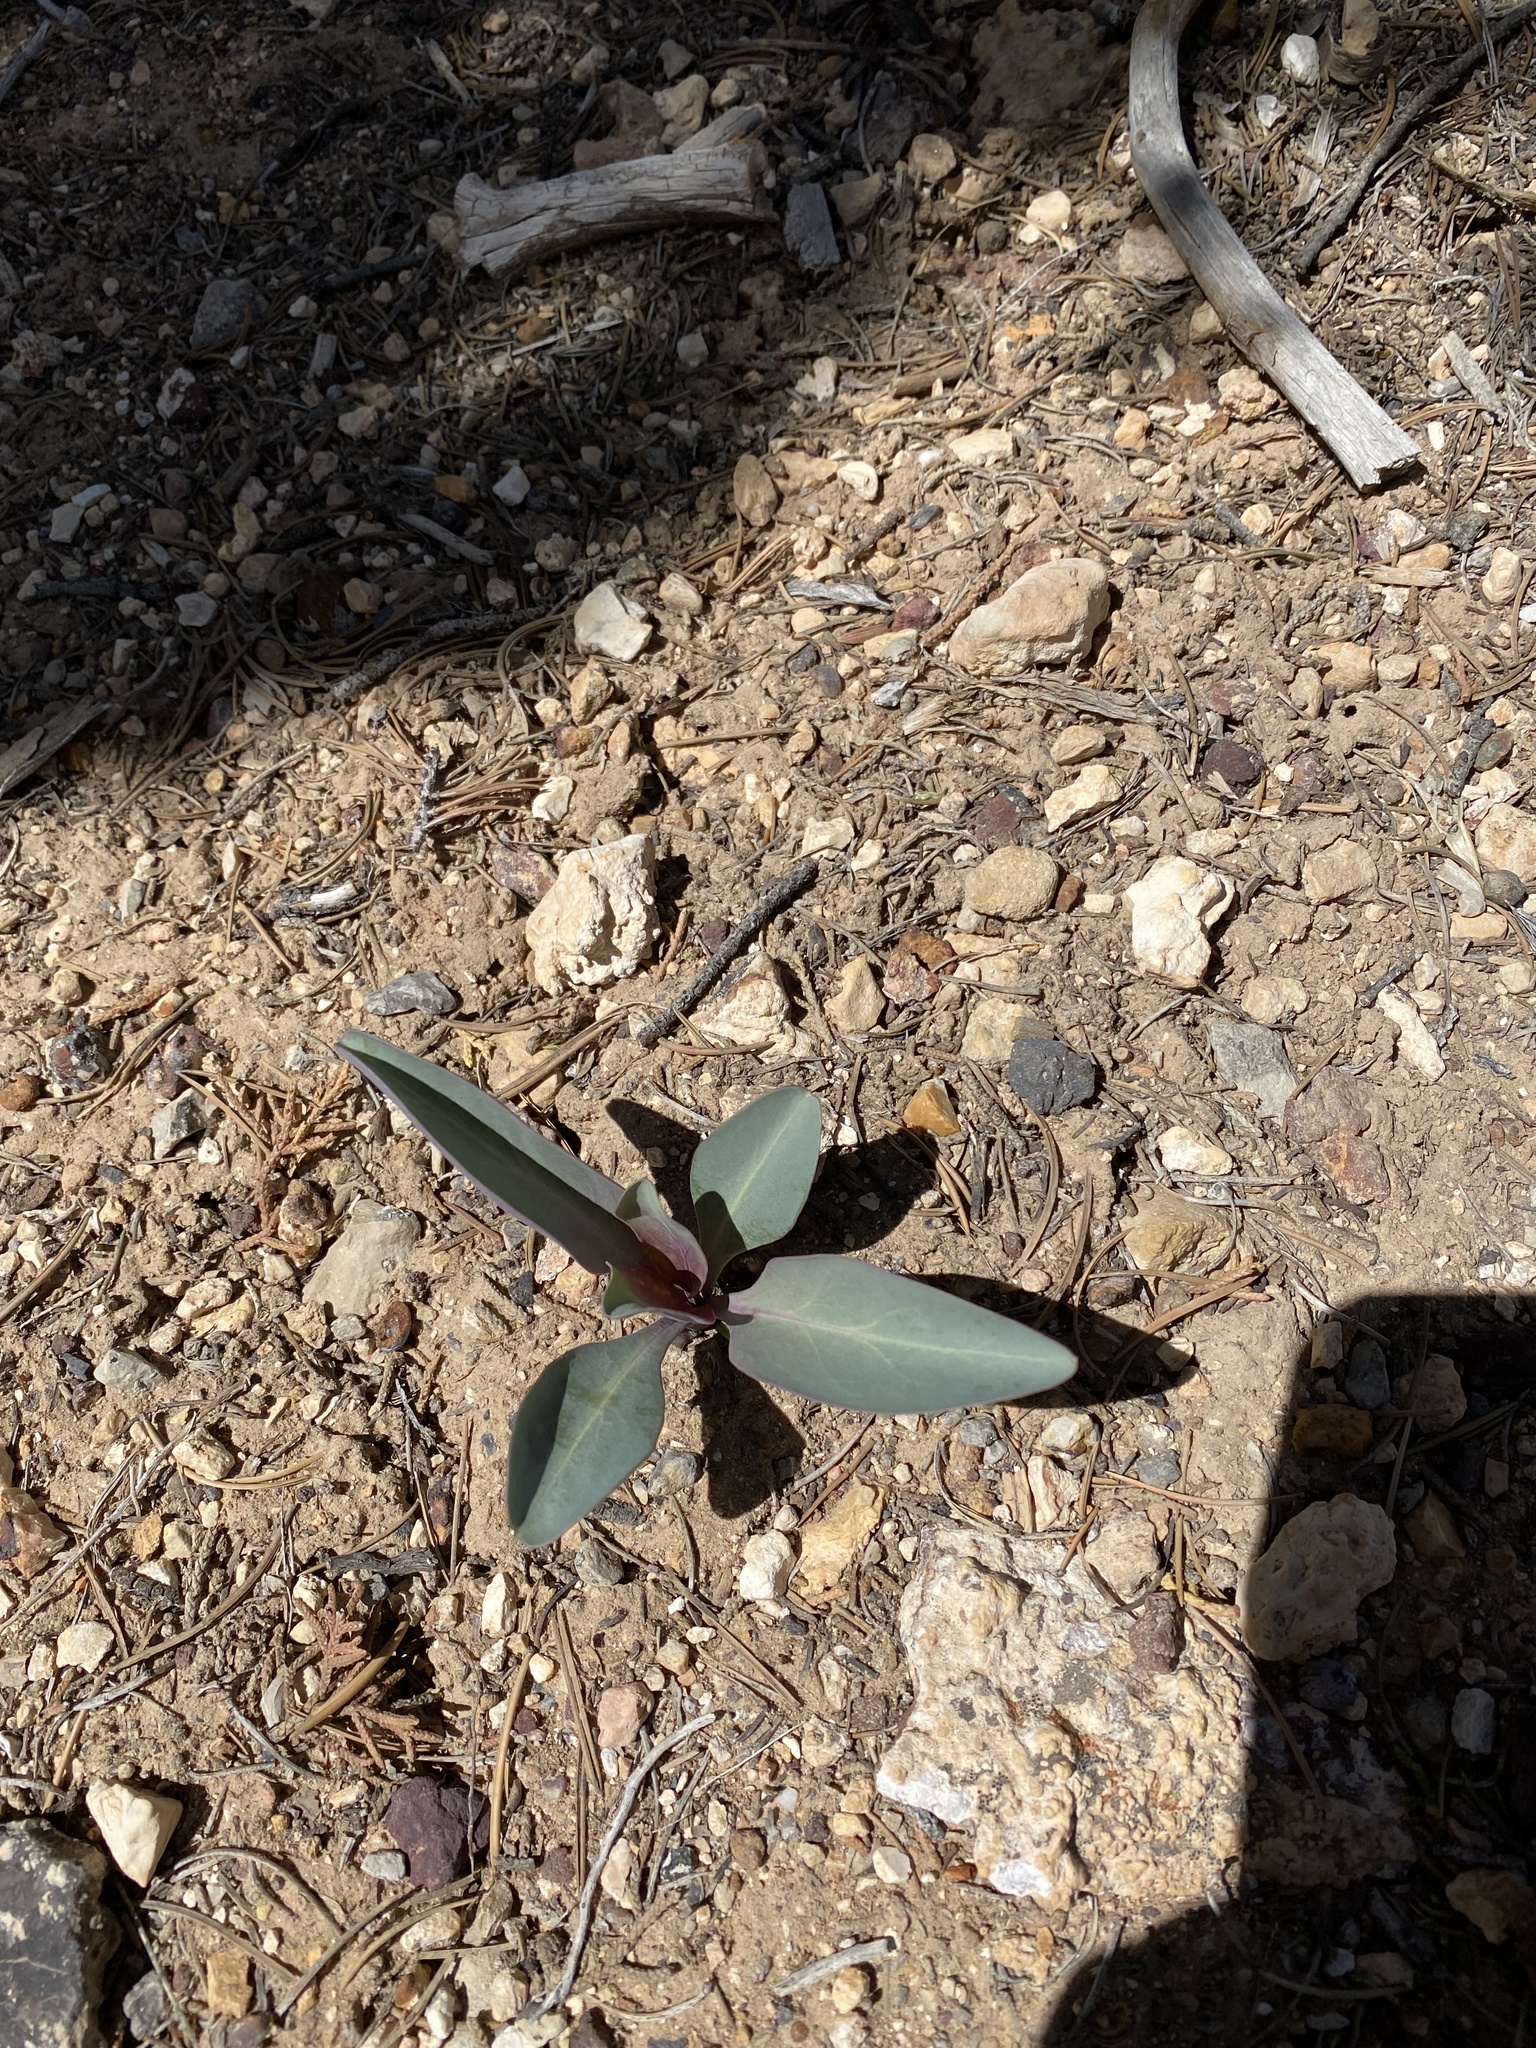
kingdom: Plantae
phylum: Tracheophyta
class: Magnoliopsida
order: Lamiales
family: Plantaginaceae
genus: Penstemon
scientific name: Penstemon pachyphyllus
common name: Thick-leaf penstemon
